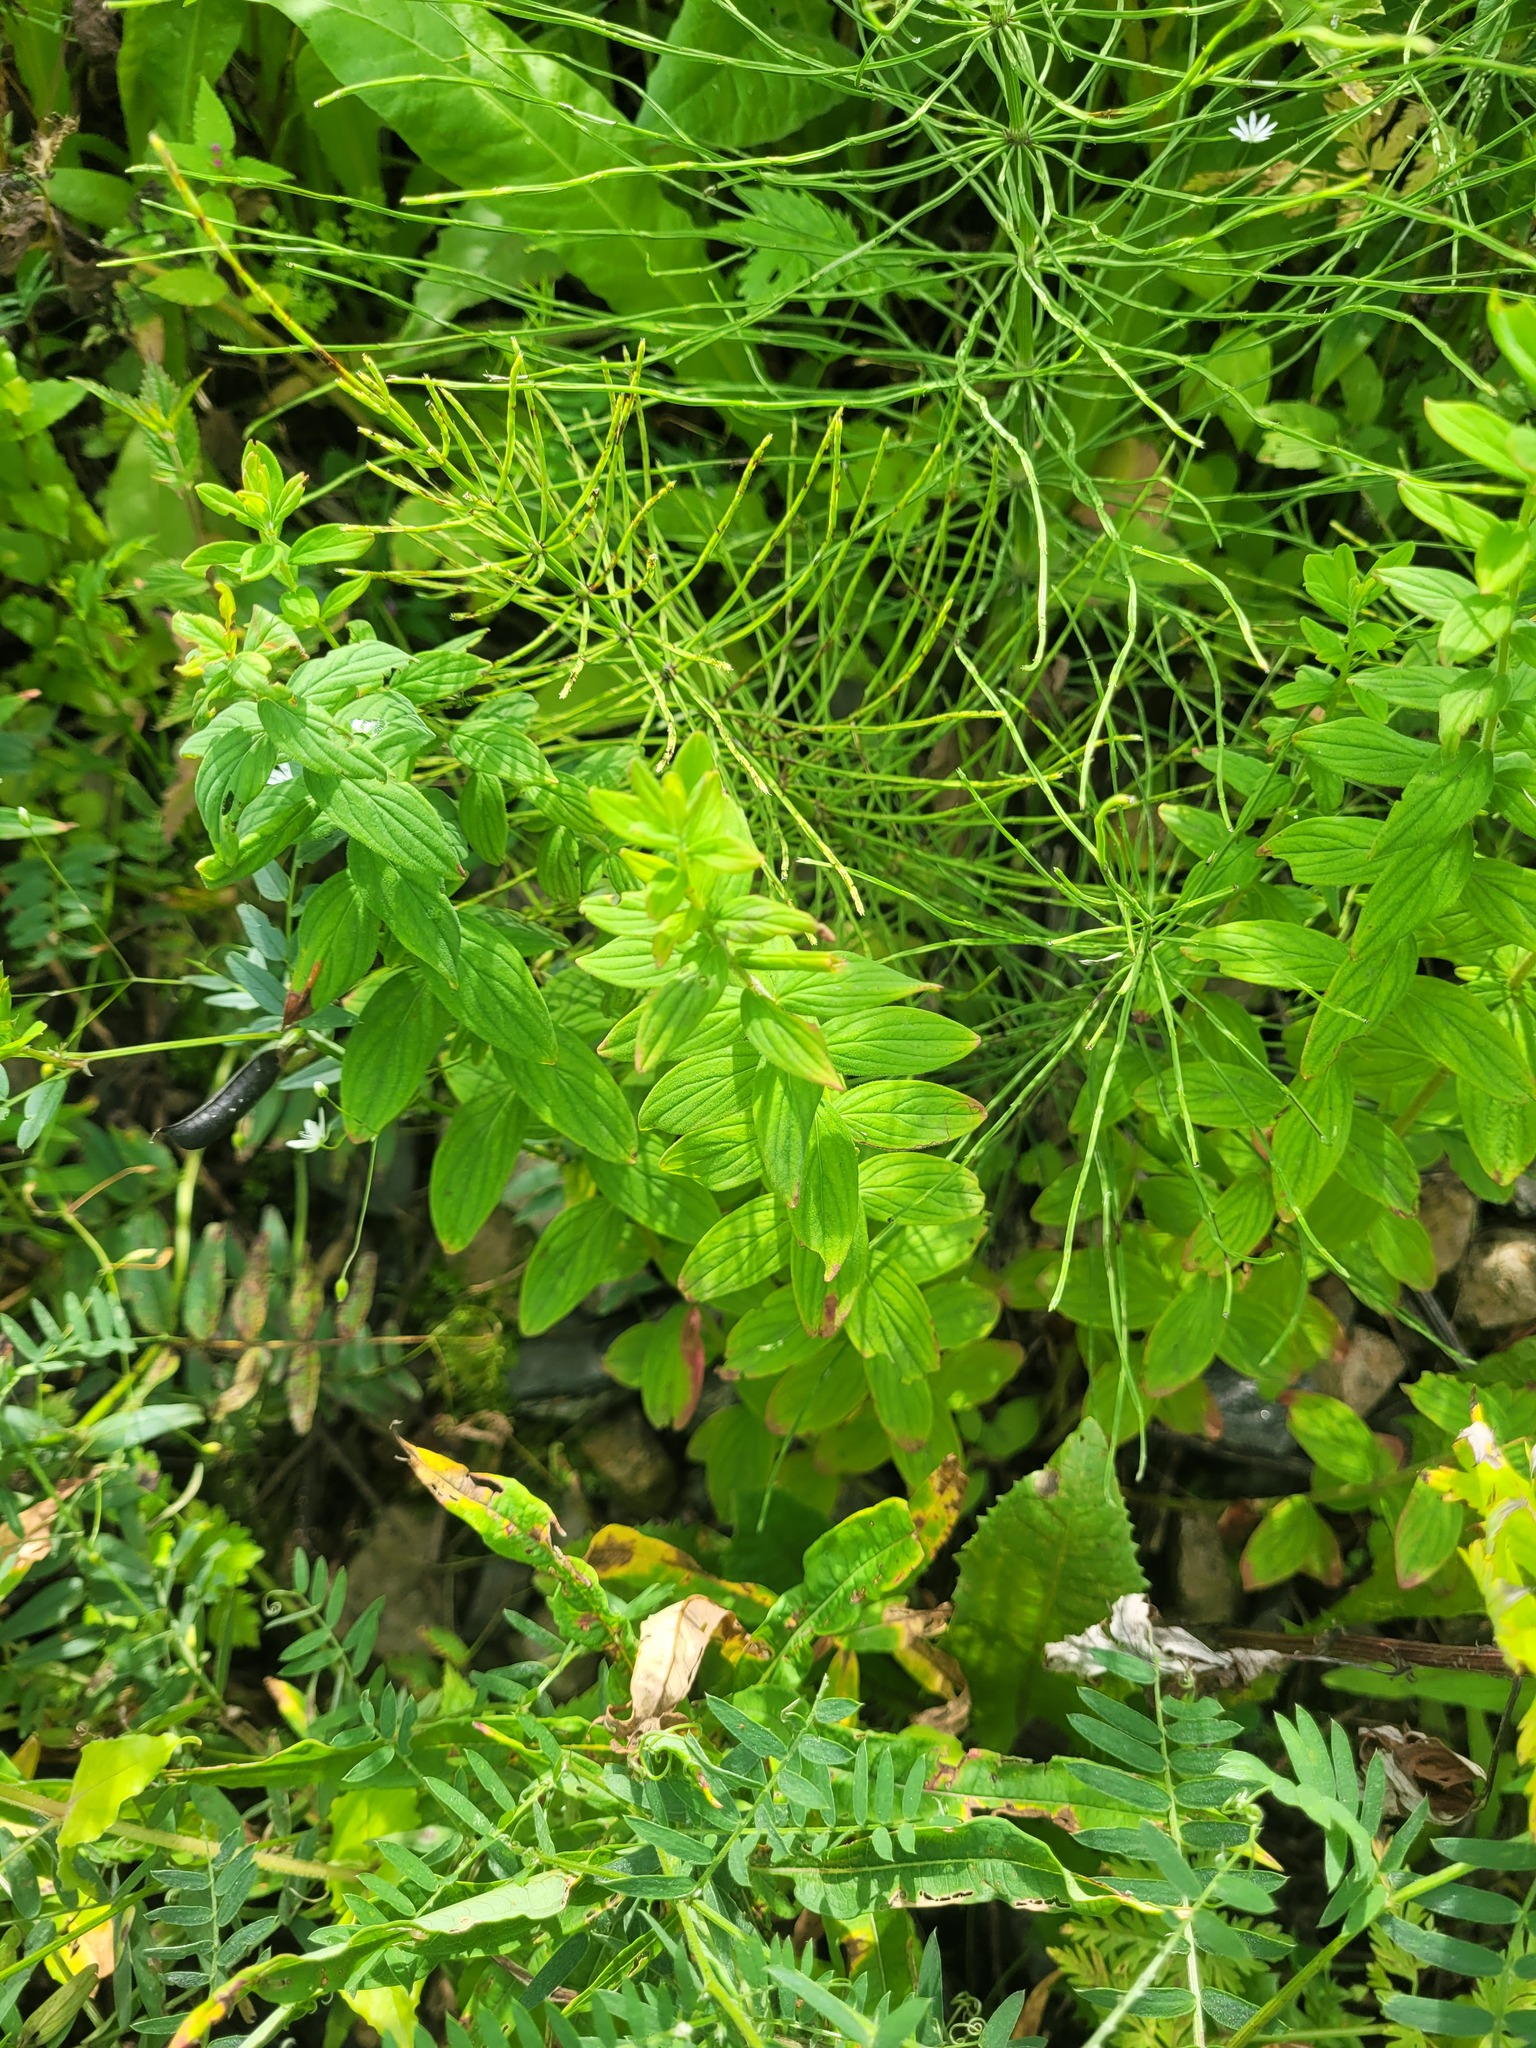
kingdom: Plantae
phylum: Tracheophyta
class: Magnoliopsida
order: Malpighiales
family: Hypericaceae
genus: Hypericum
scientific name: Hypericum hirsutum
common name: Hairy st. john's-wort
